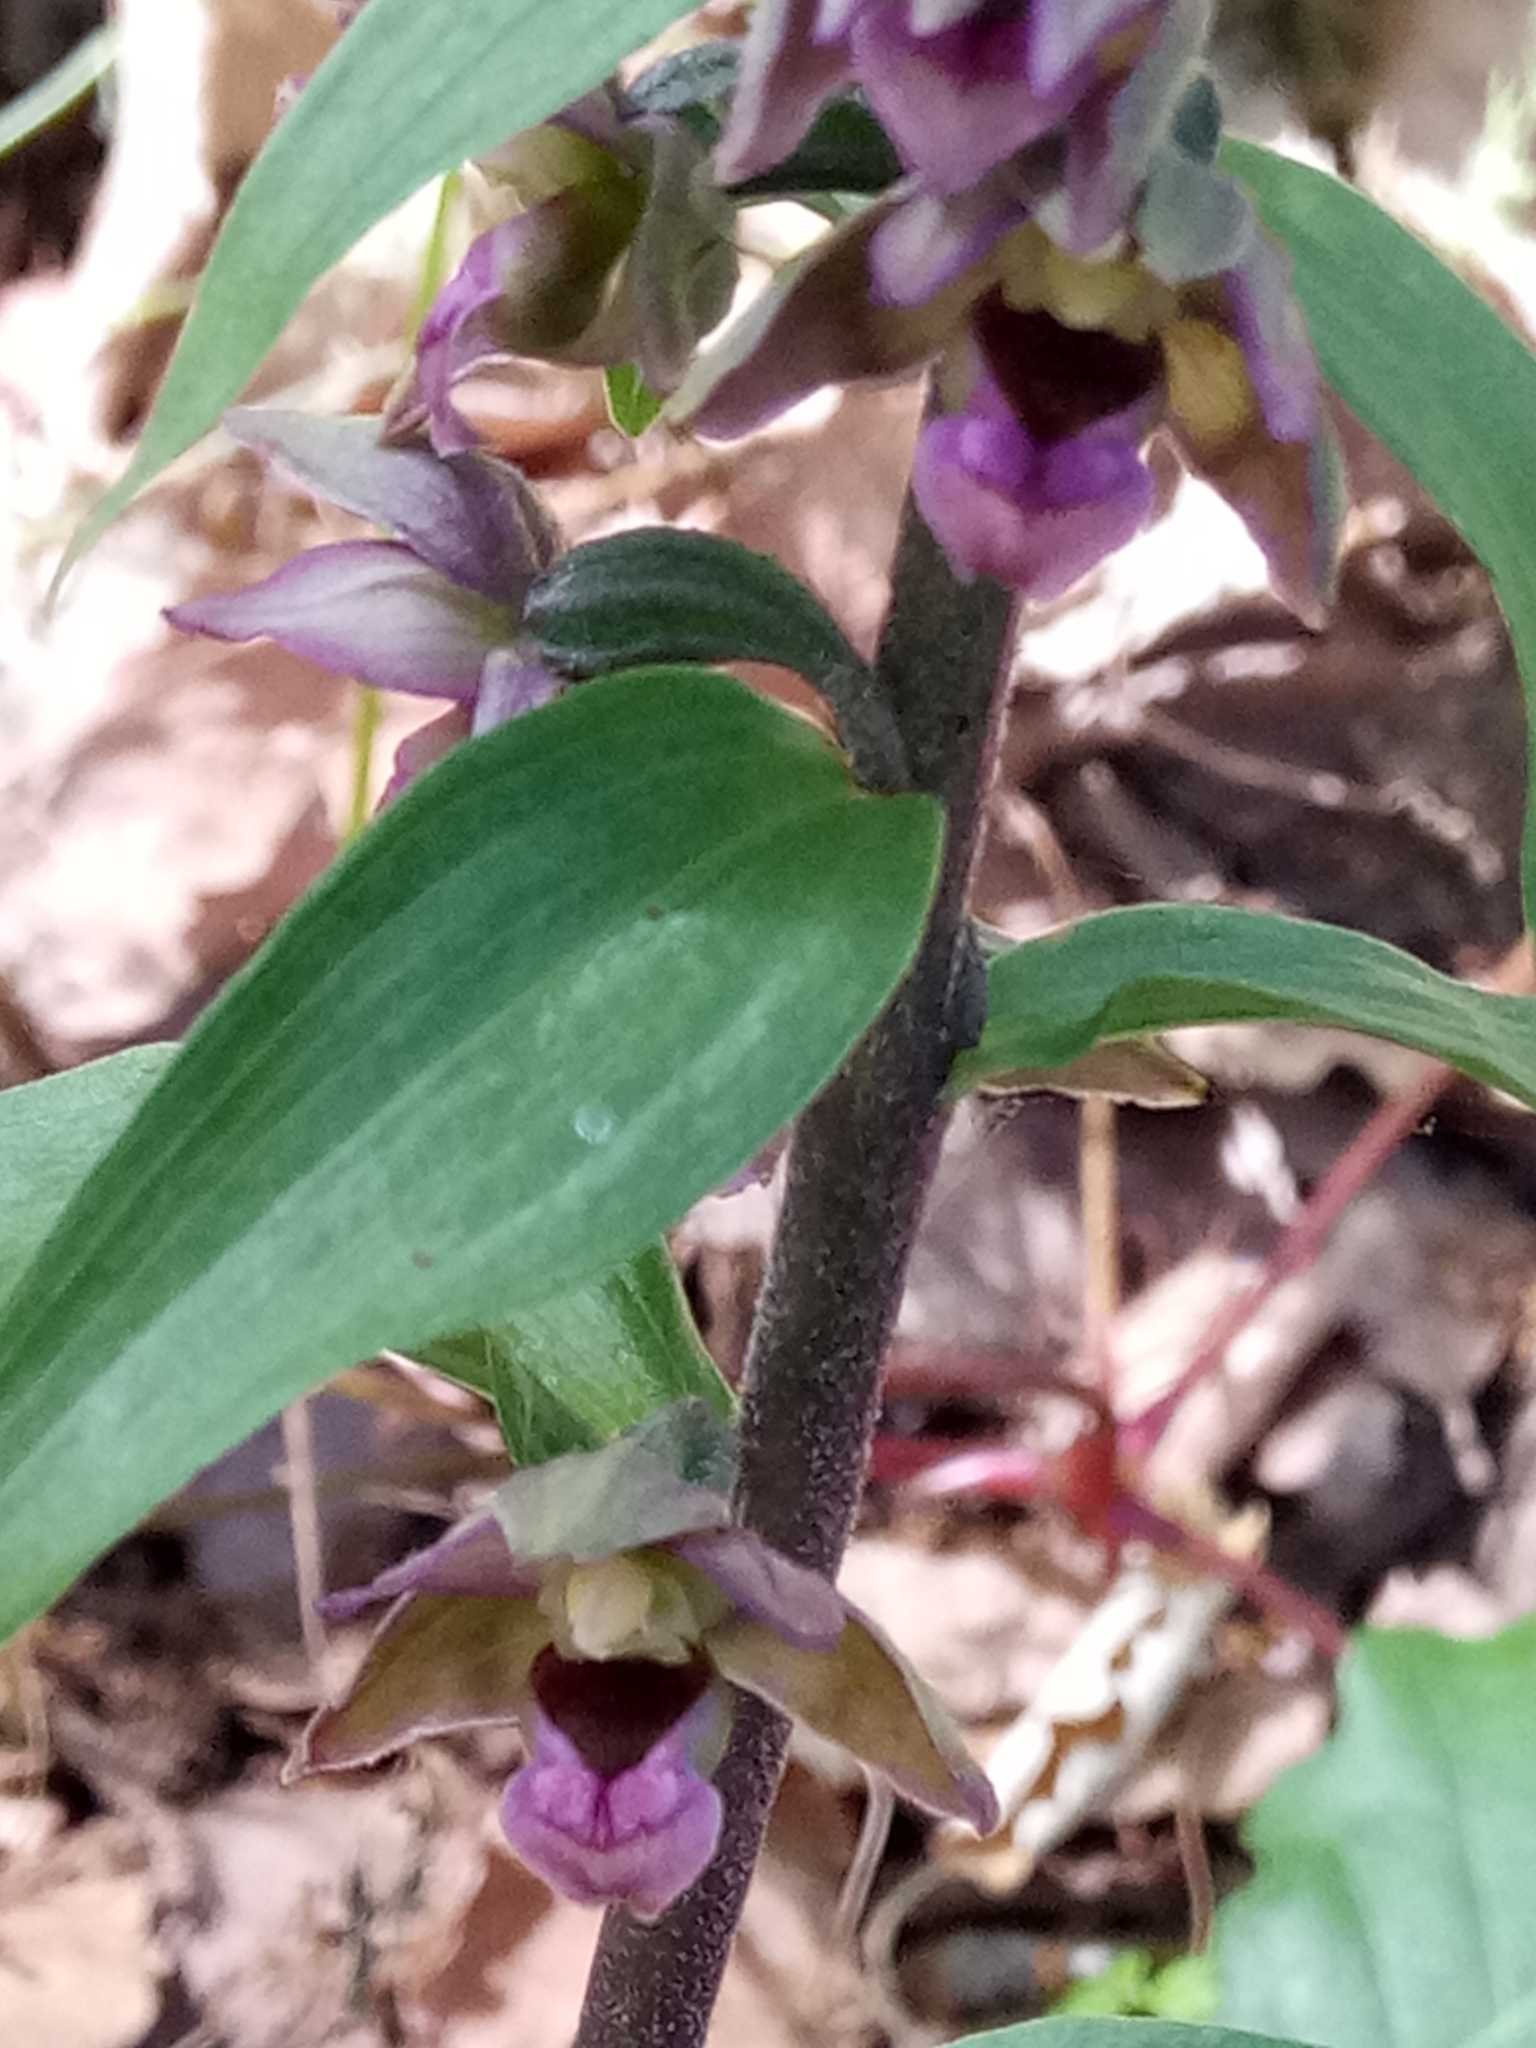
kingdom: Plantae
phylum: Tracheophyta
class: Liliopsida
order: Asparagales
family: Orchidaceae
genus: Epipactis
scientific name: Epipactis helleborine
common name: Broad-leaved helleborine
